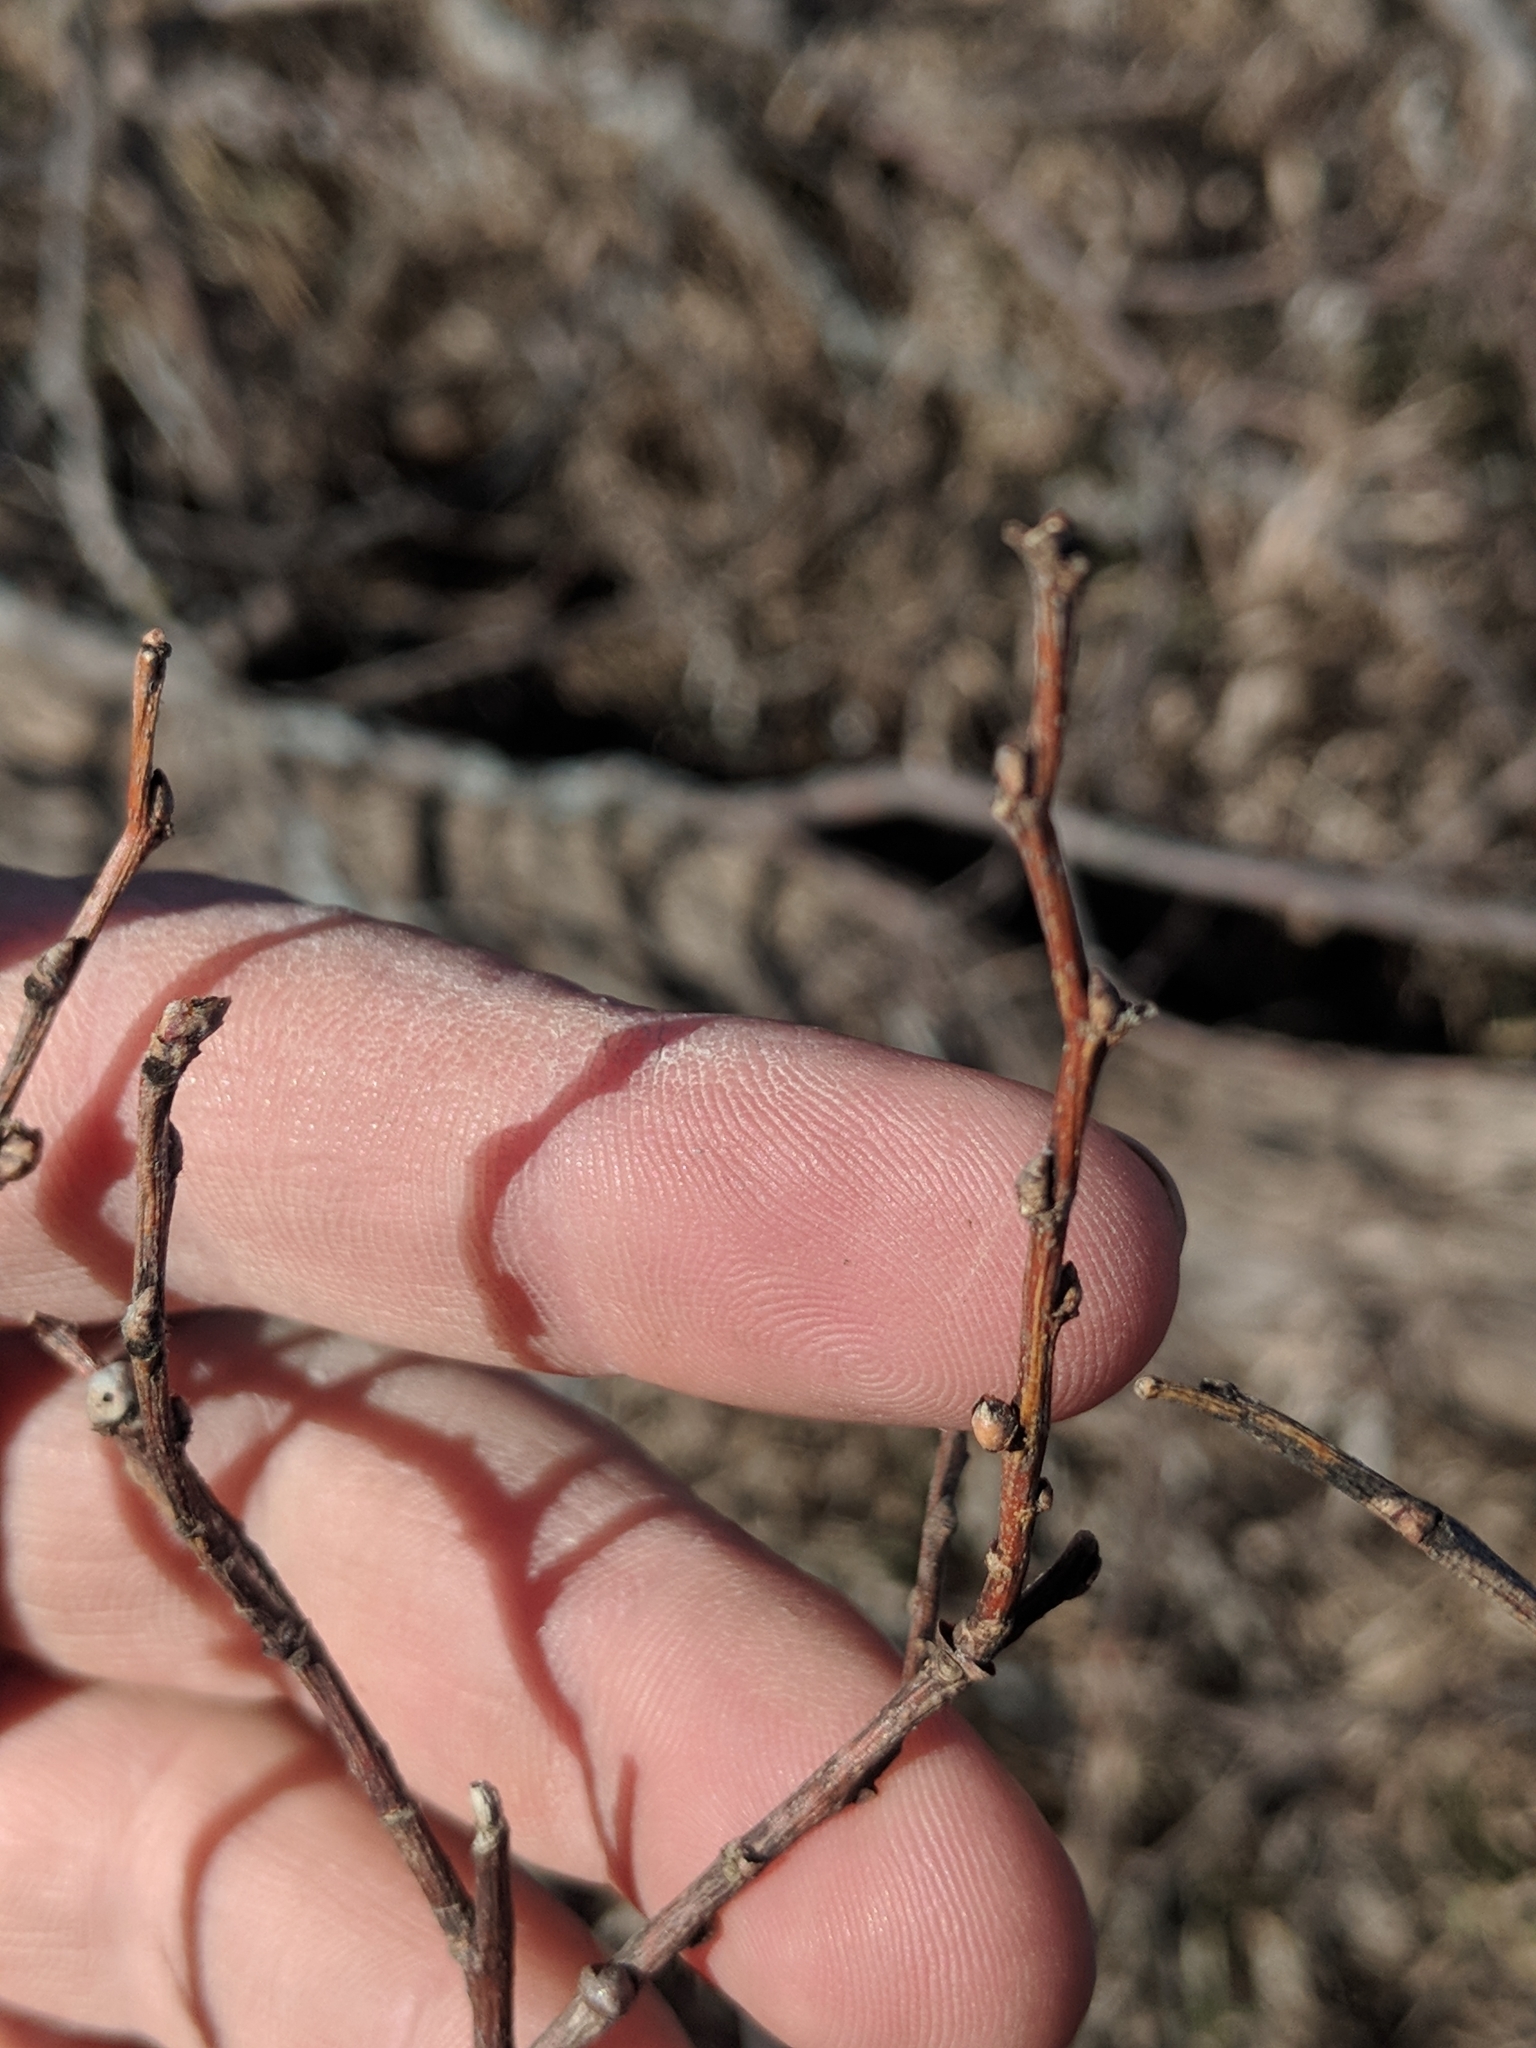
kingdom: Plantae
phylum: Tracheophyta
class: Magnoliopsida
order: Rosales
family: Cannabaceae
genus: Celtis
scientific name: Celtis occidentalis
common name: Common hackberry
